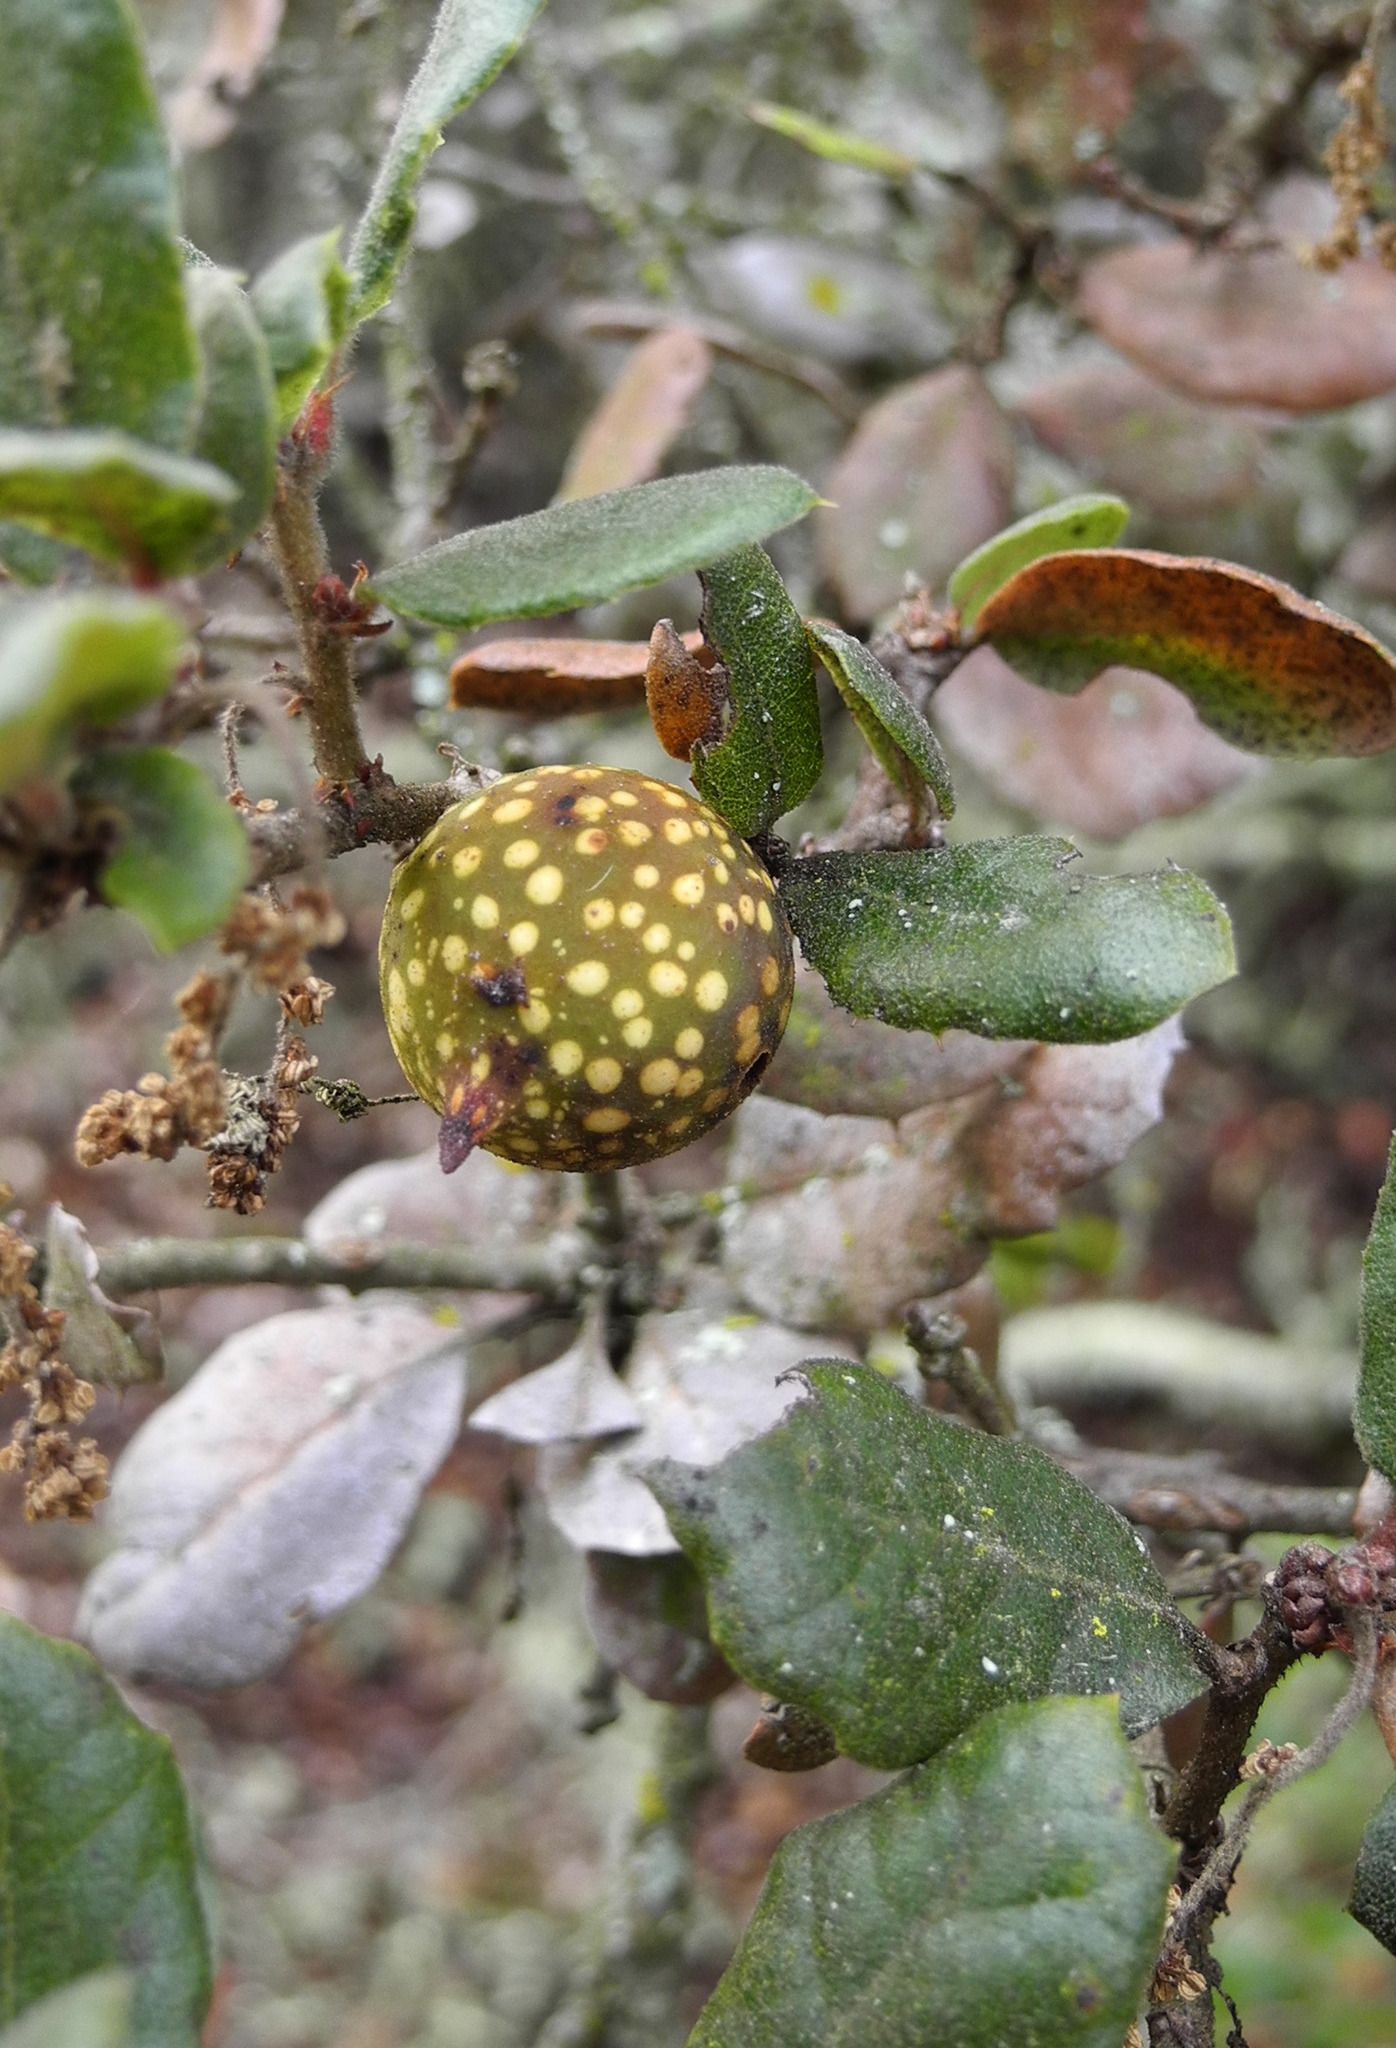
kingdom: Animalia
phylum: Arthropoda
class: Insecta
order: Hymenoptera
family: Cynipidae
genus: Burnettweldia
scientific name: Burnettweldia
